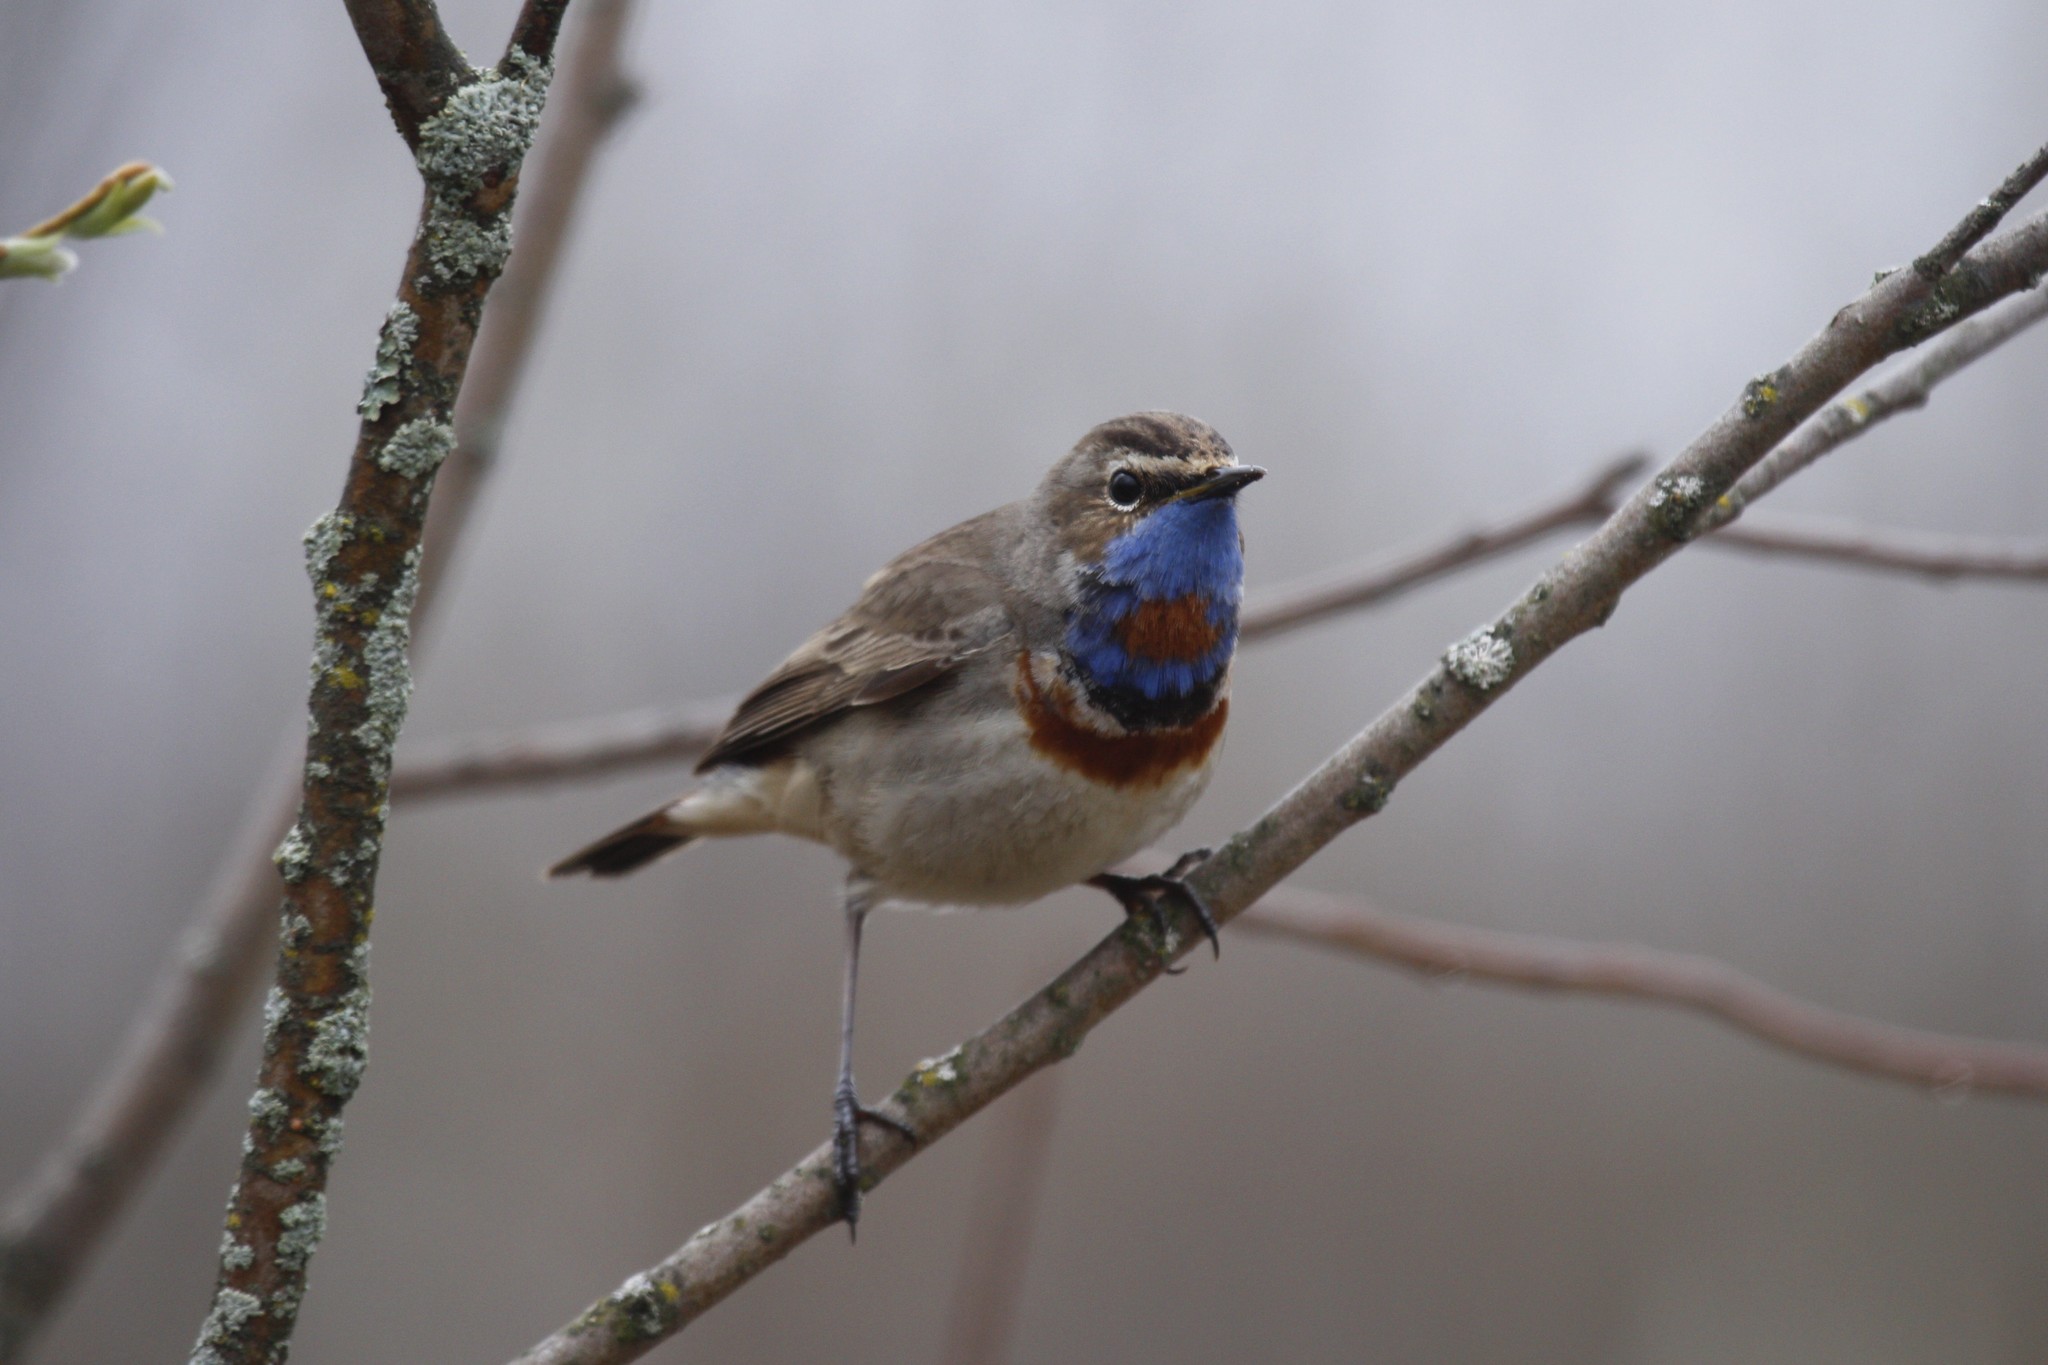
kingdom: Animalia
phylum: Chordata
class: Aves
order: Passeriformes
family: Muscicapidae
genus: Luscinia
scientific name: Luscinia svecica
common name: Bluethroat
